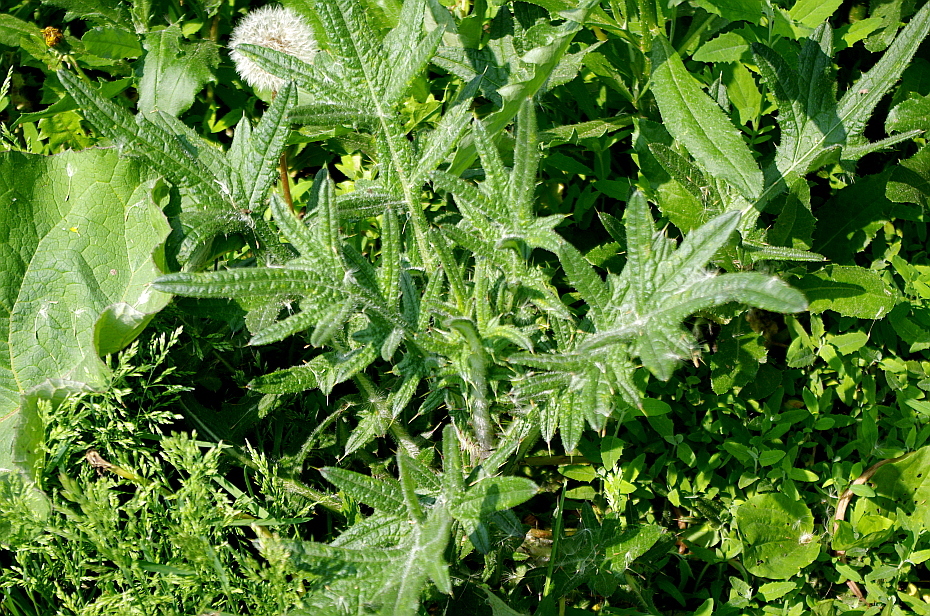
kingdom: Plantae
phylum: Tracheophyta
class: Magnoliopsida
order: Asterales
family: Asteraceae
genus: Cirsium
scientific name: Cirsium vulgare
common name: Bull thistle
